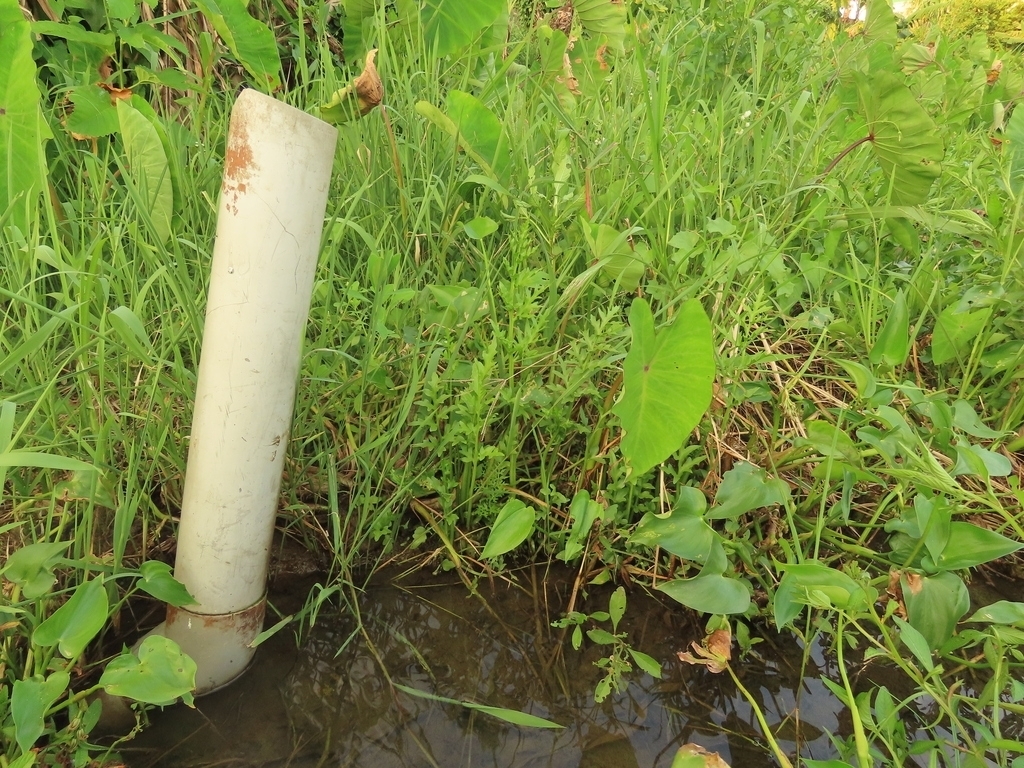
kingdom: Plantae
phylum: Tracheophyta
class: Polypodiopsida
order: Polypodiales
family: Pteridaceae
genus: Ceratopteris
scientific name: Ceratopteris thalictroides
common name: Water fern
